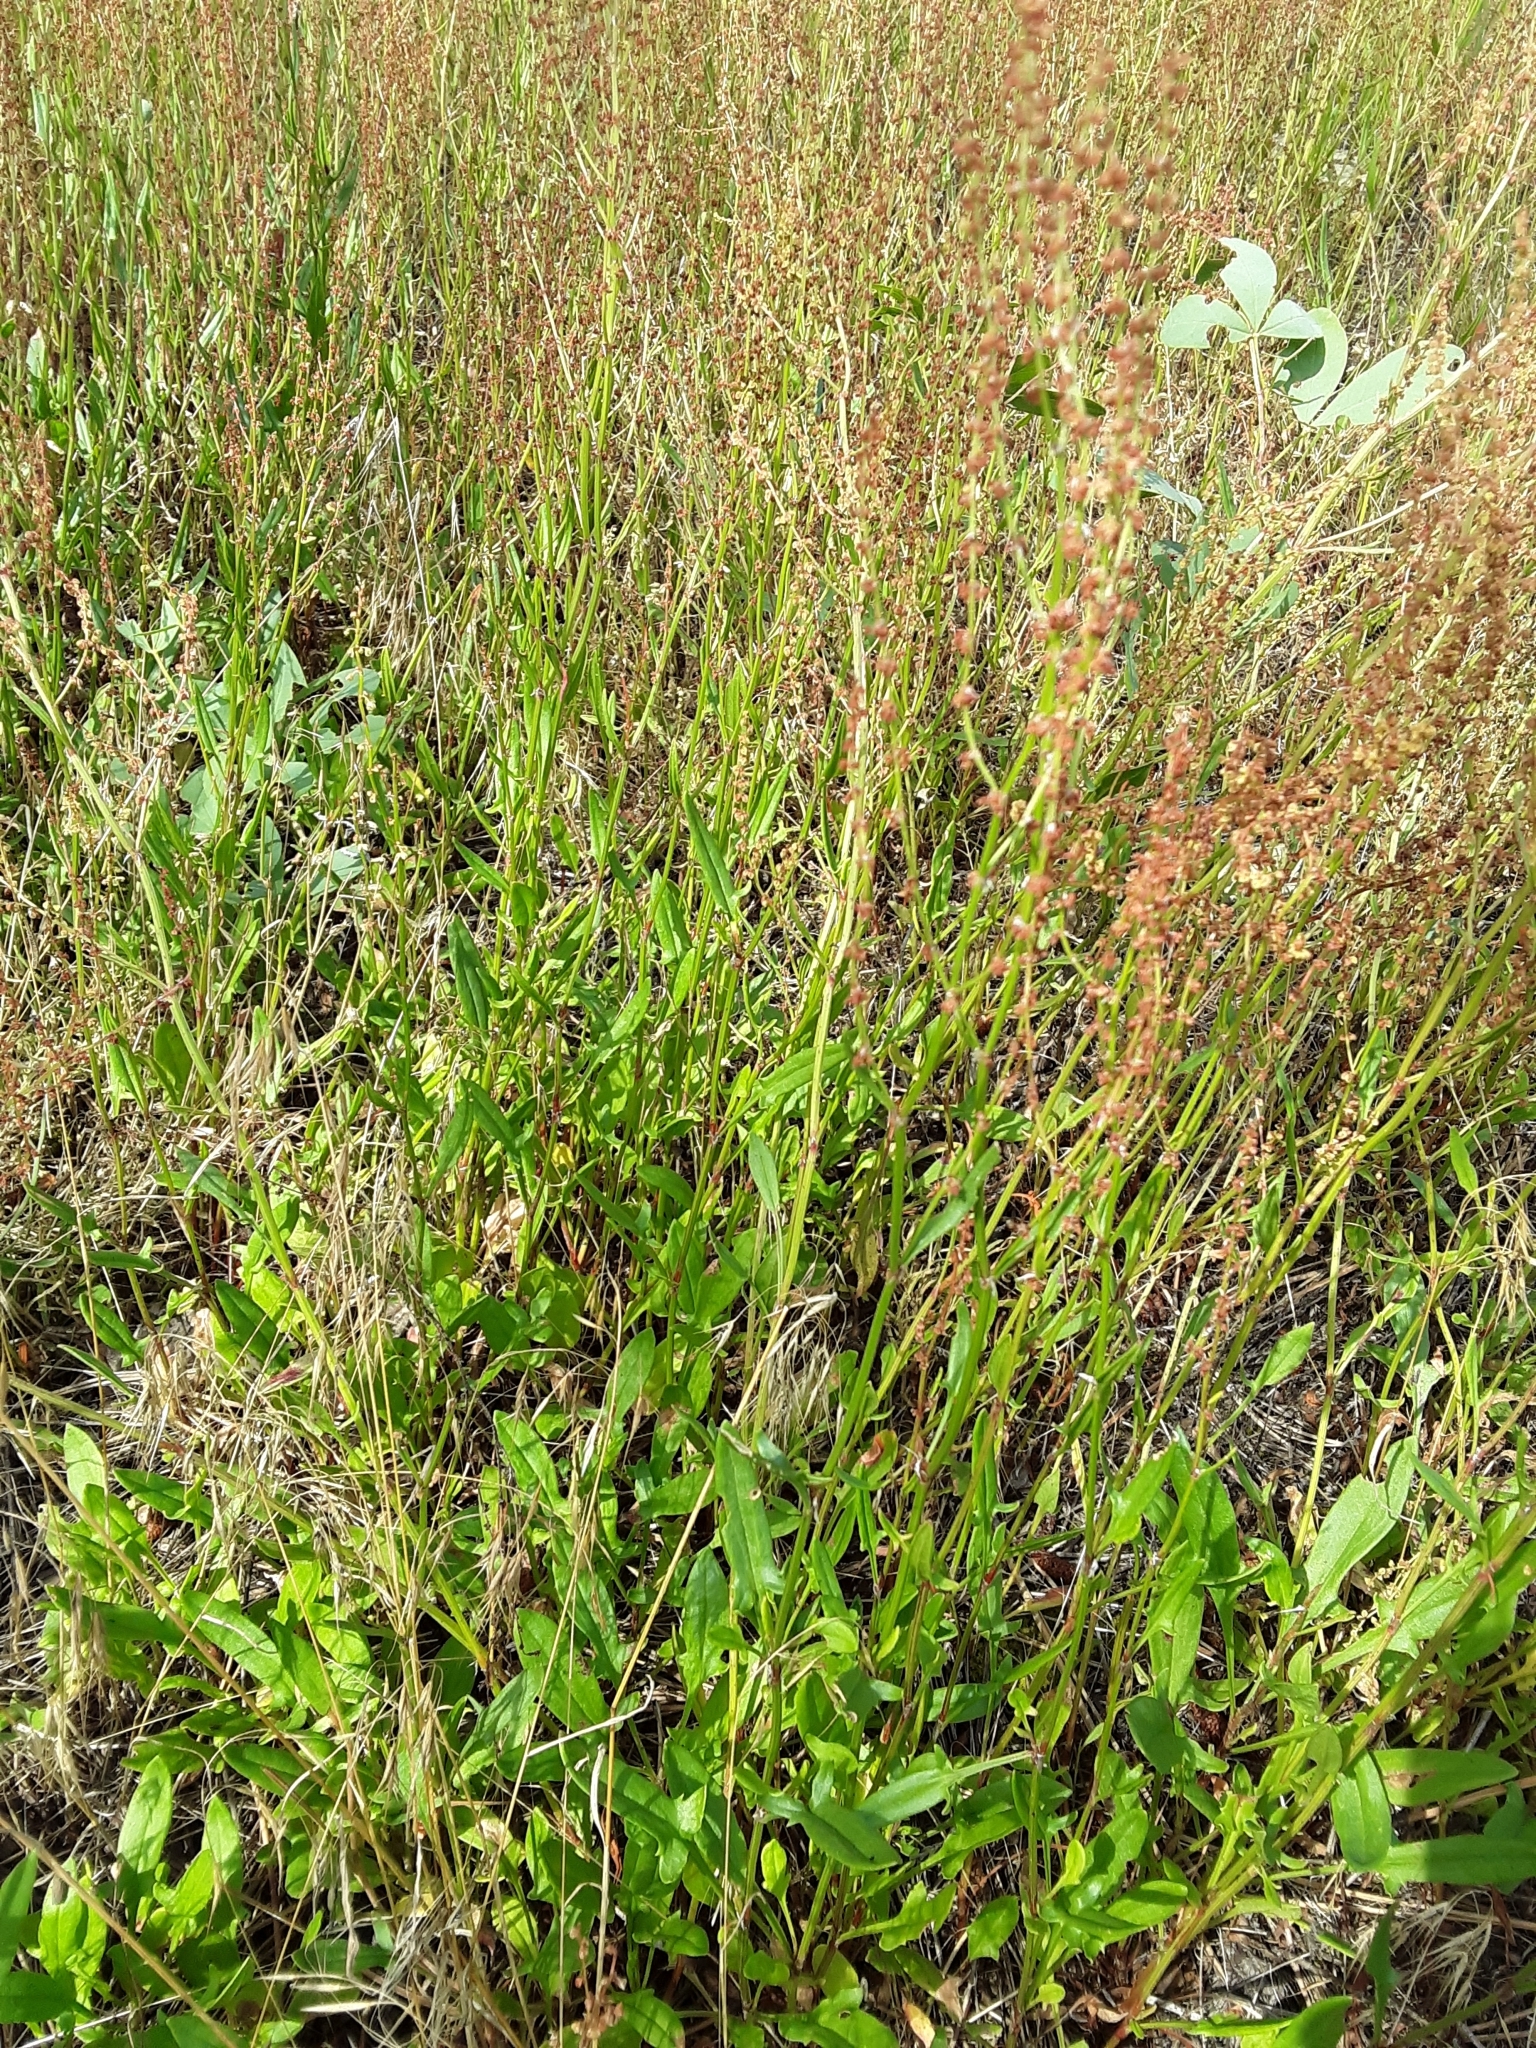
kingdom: Plantae
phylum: Tracheophyta
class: Magnoliopsida
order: Caryophyllales
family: Polygonaceae
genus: Rumex
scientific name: Rumex acetosella
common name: Common sheep sorrel
